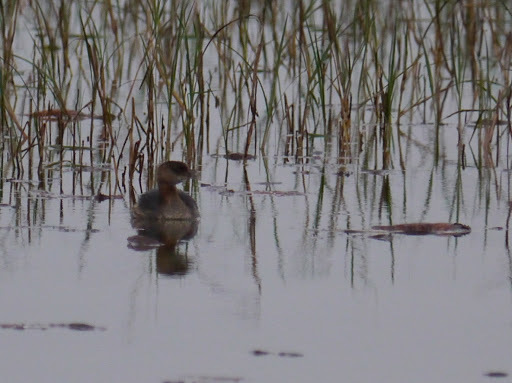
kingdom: Animalia
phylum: Chordata
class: Aves
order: Podicipediformes
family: Podicipedidae
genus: Podilymbus
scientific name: Podilymbus podiceps
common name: Pied-billed grebe
